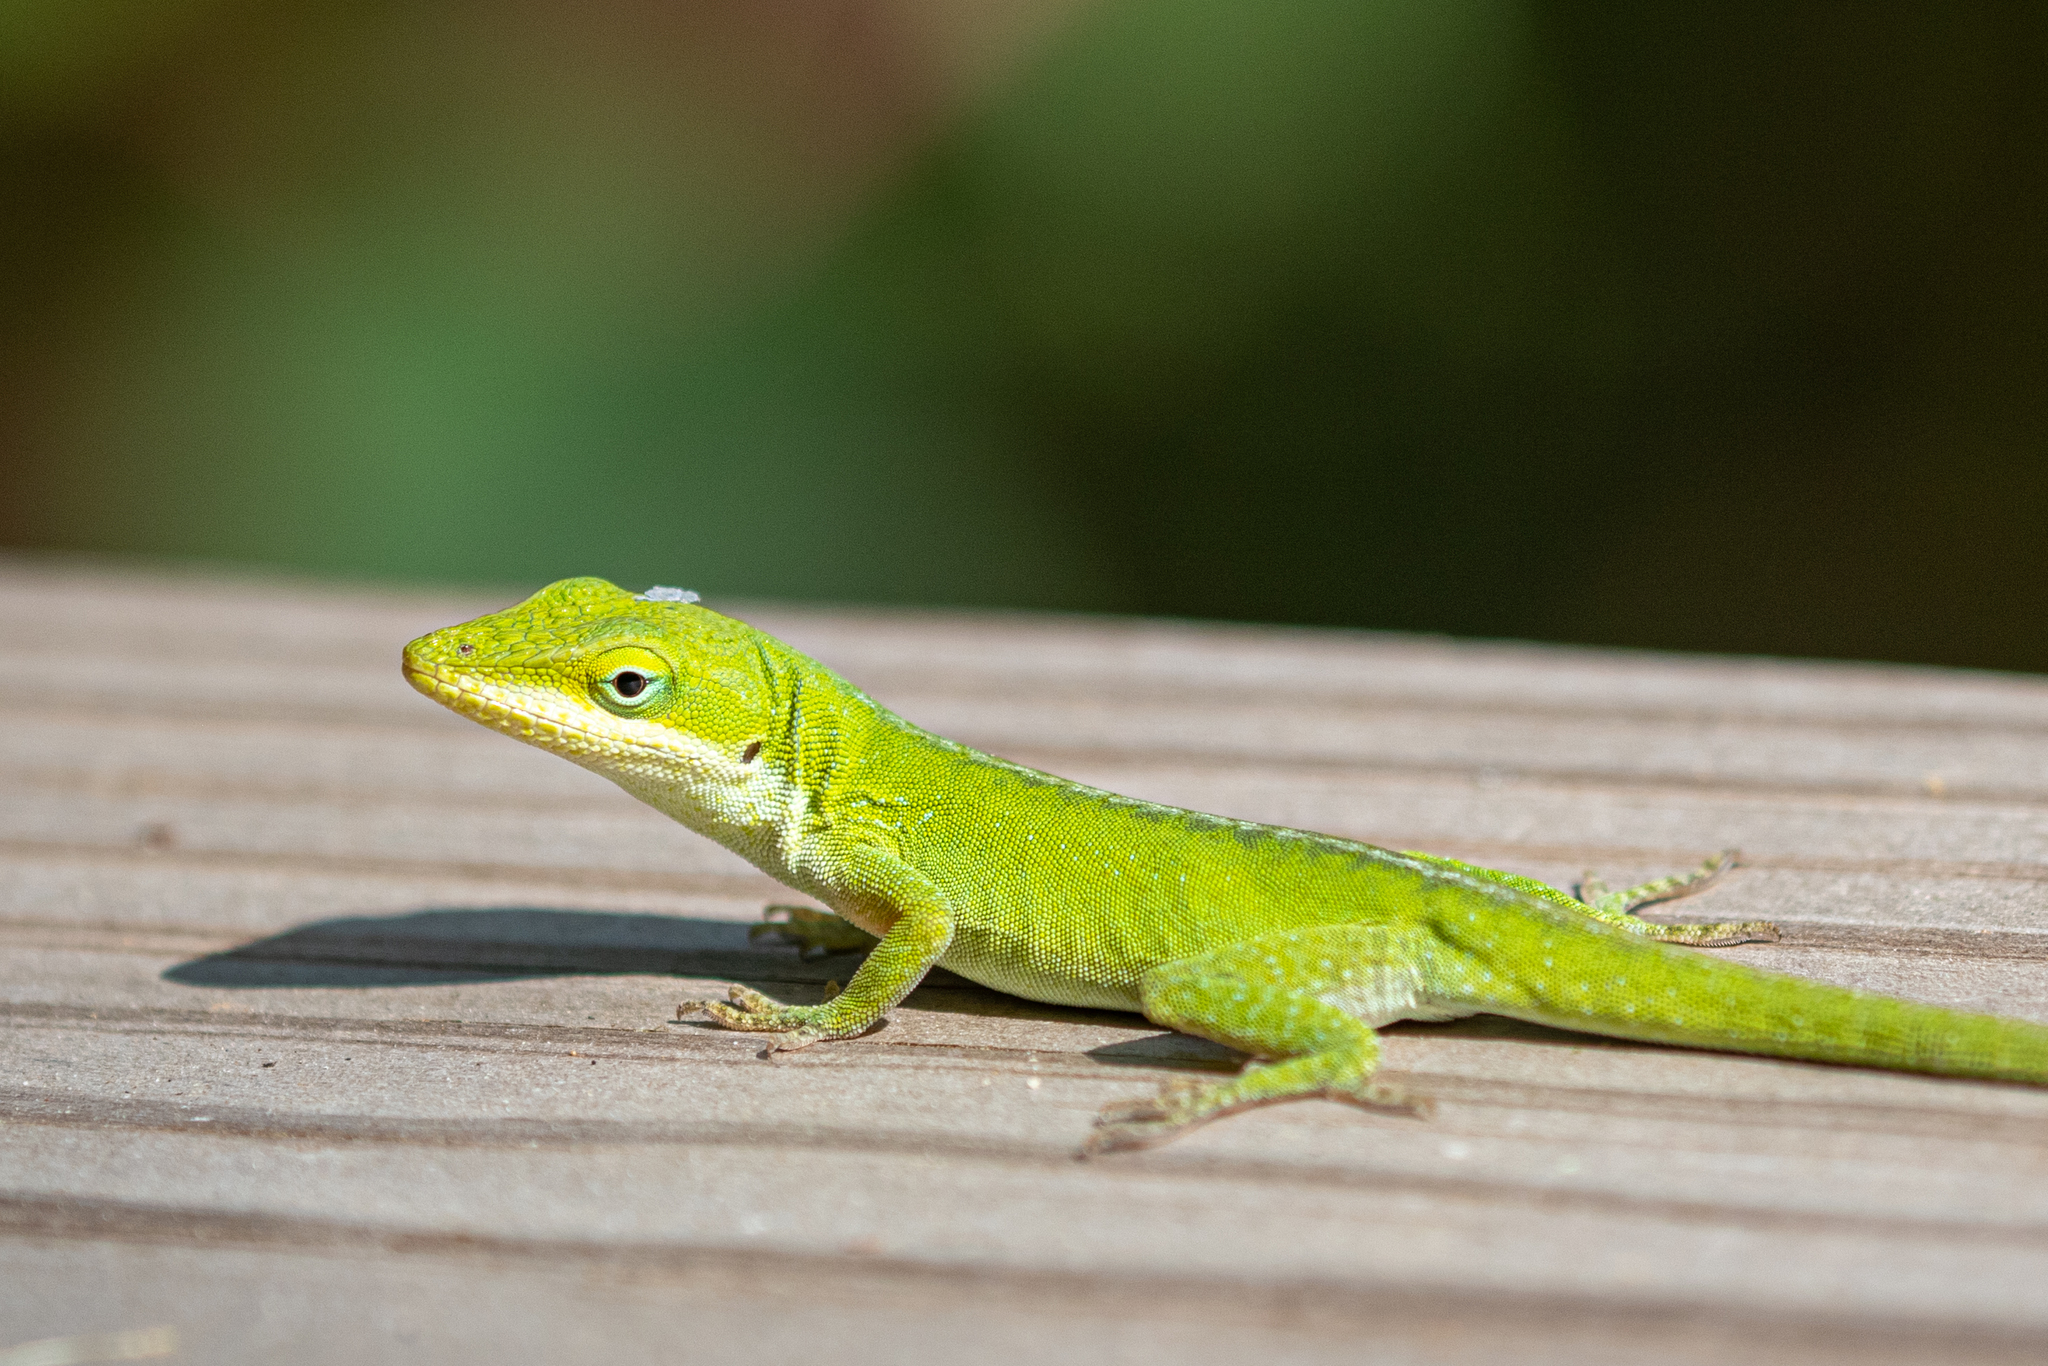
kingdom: Animalia
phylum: Chordata
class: Squamata
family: Dactyloidae
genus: Anolis
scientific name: Anolis carolinensis
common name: Green anole
